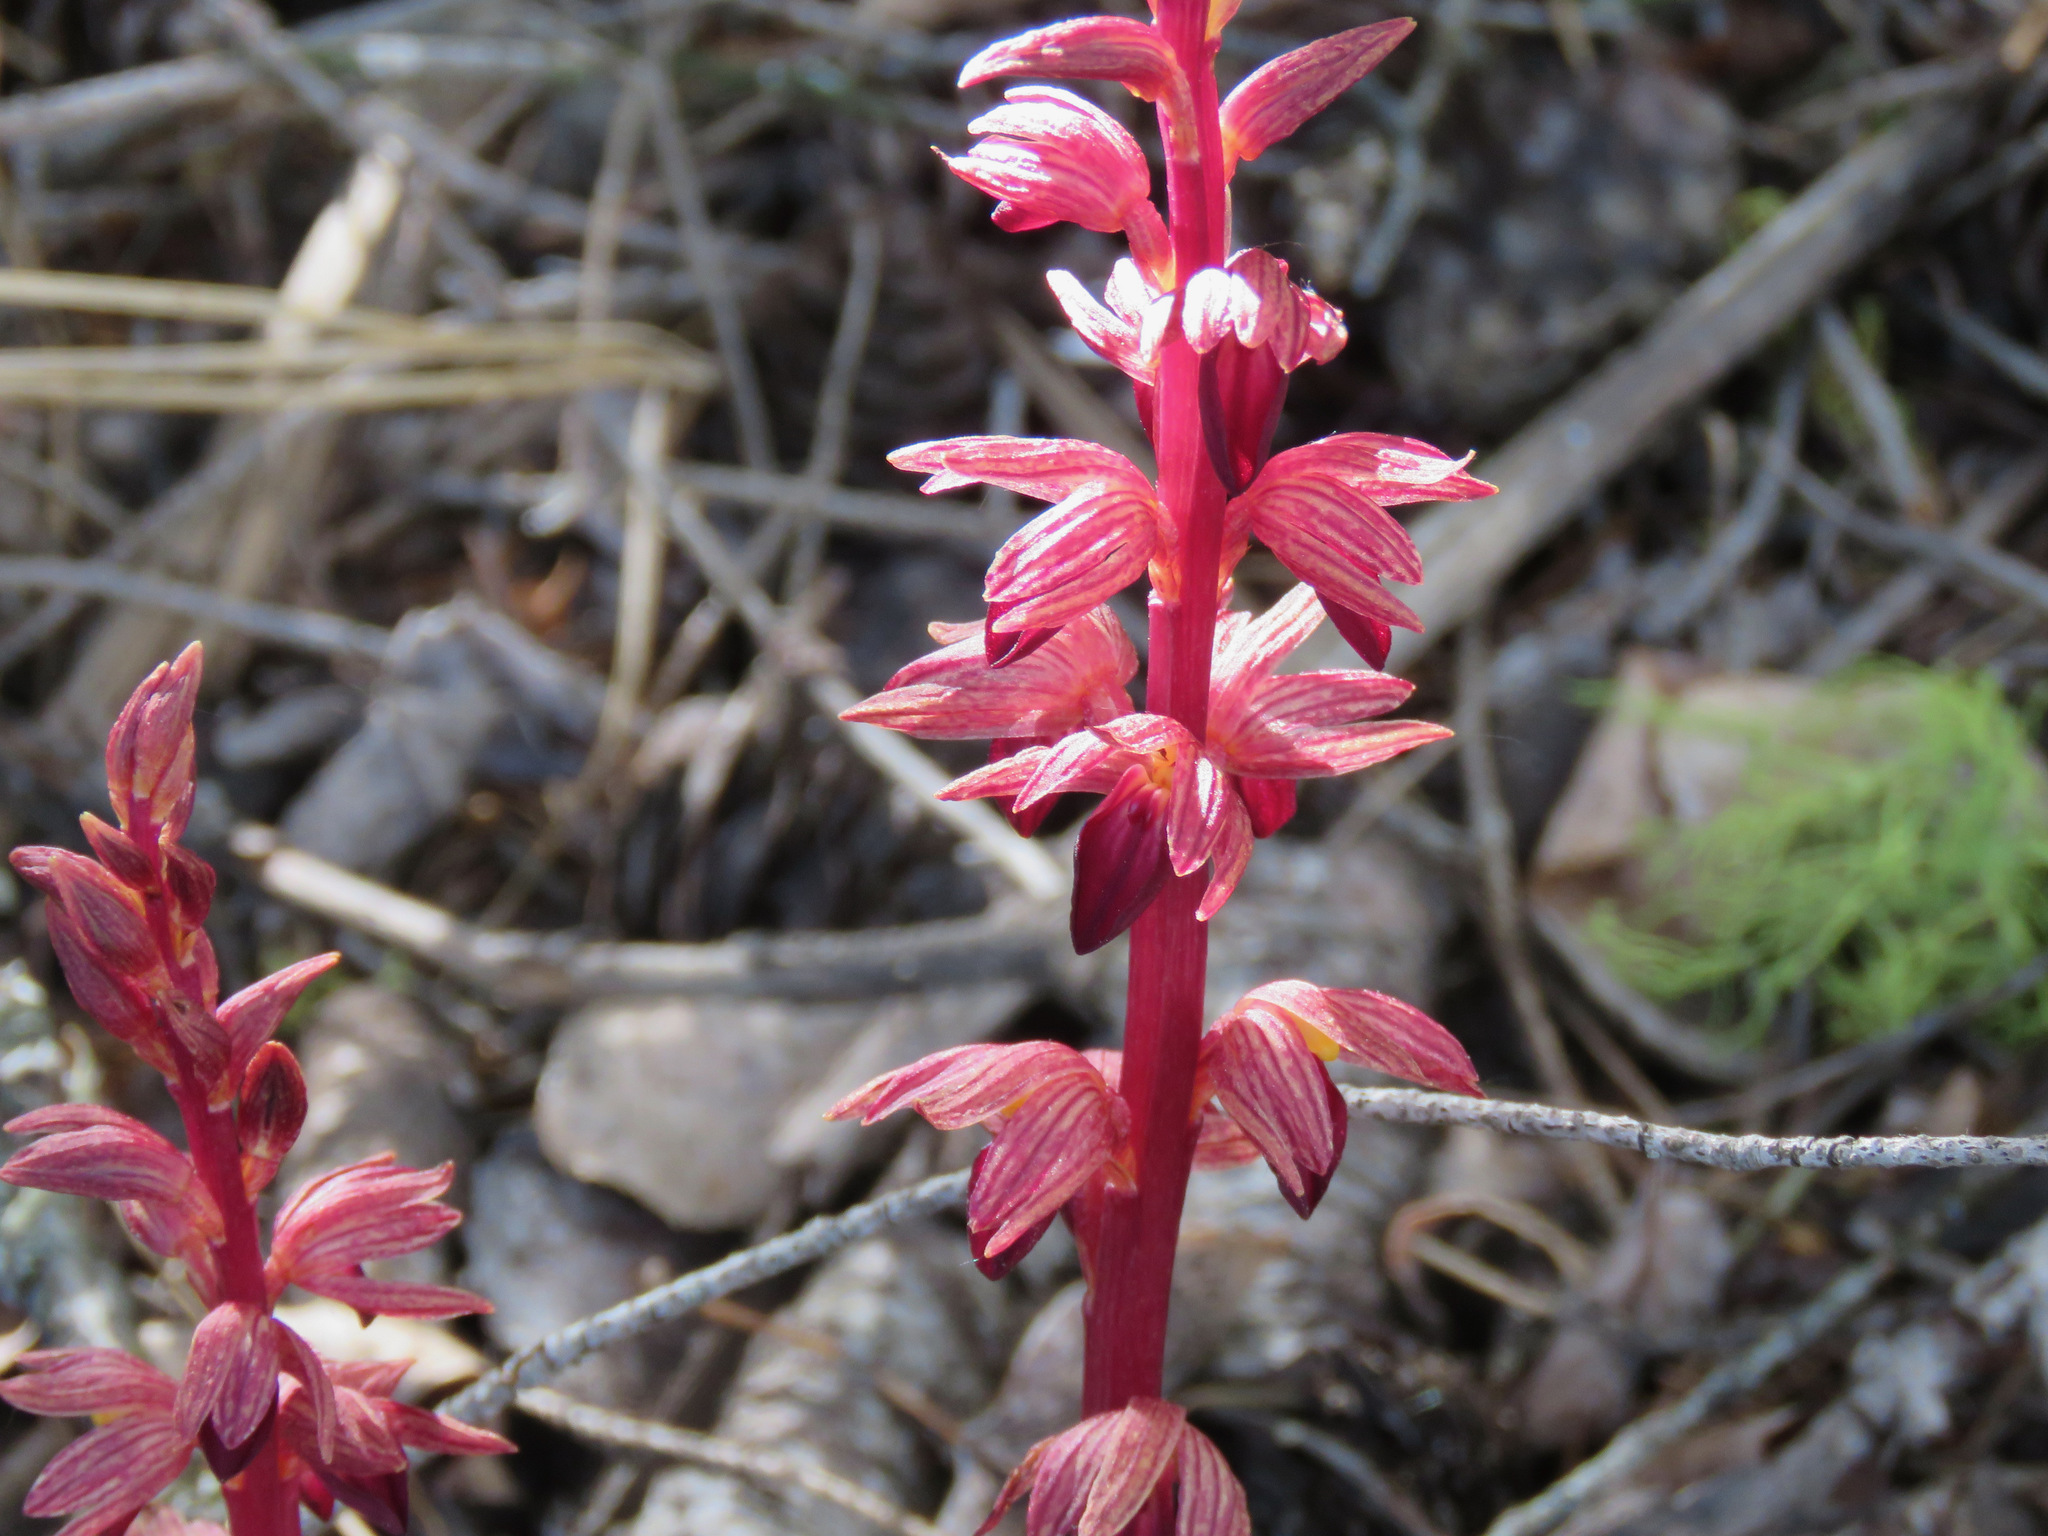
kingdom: Plantae
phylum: Tracheophyta
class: Liliopsida
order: Asparagales
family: Orchidaceae
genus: Corallorhiza
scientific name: Corallorhiza striata
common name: Hooded coralroot
